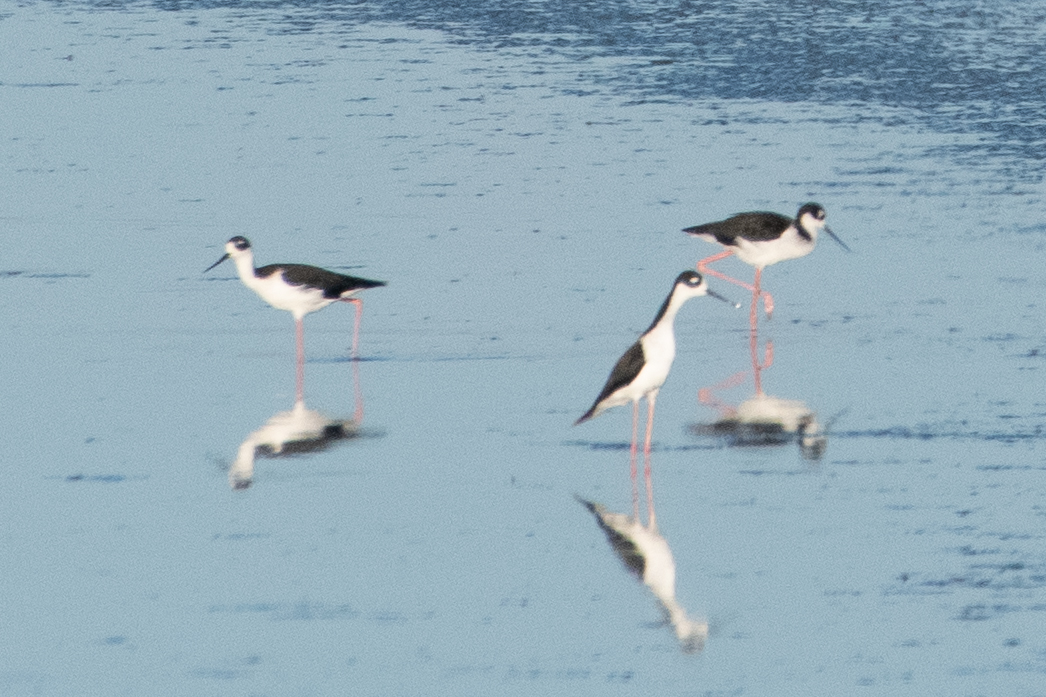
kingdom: Animalia
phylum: Chordata
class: Aves
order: Charadriiformes
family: Recurvirostridae
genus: Himantopus
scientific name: Himantopus mexicanus
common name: Black-necked stilt
